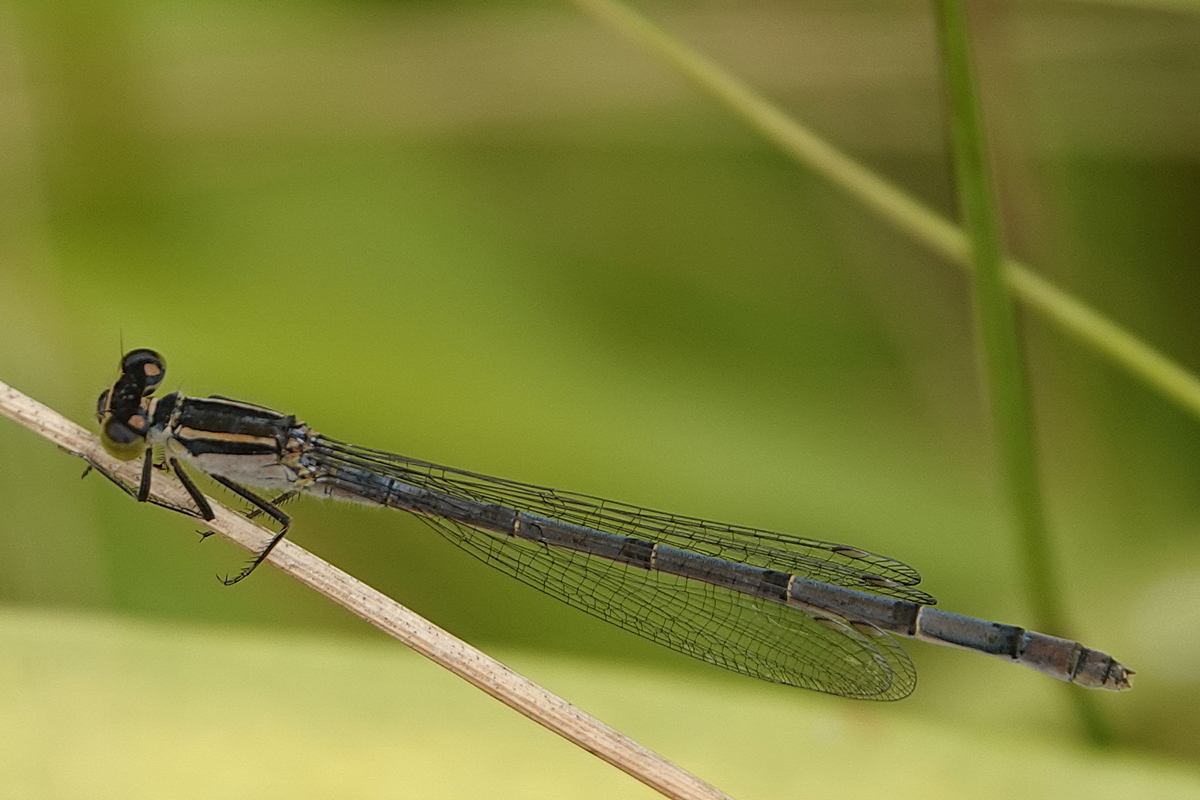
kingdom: Animalia
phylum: Arthropoda
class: Insecta
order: Odonata
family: Coenagrionidae
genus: Ischnura
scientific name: Ischnura heterosticta
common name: Common bluetail
